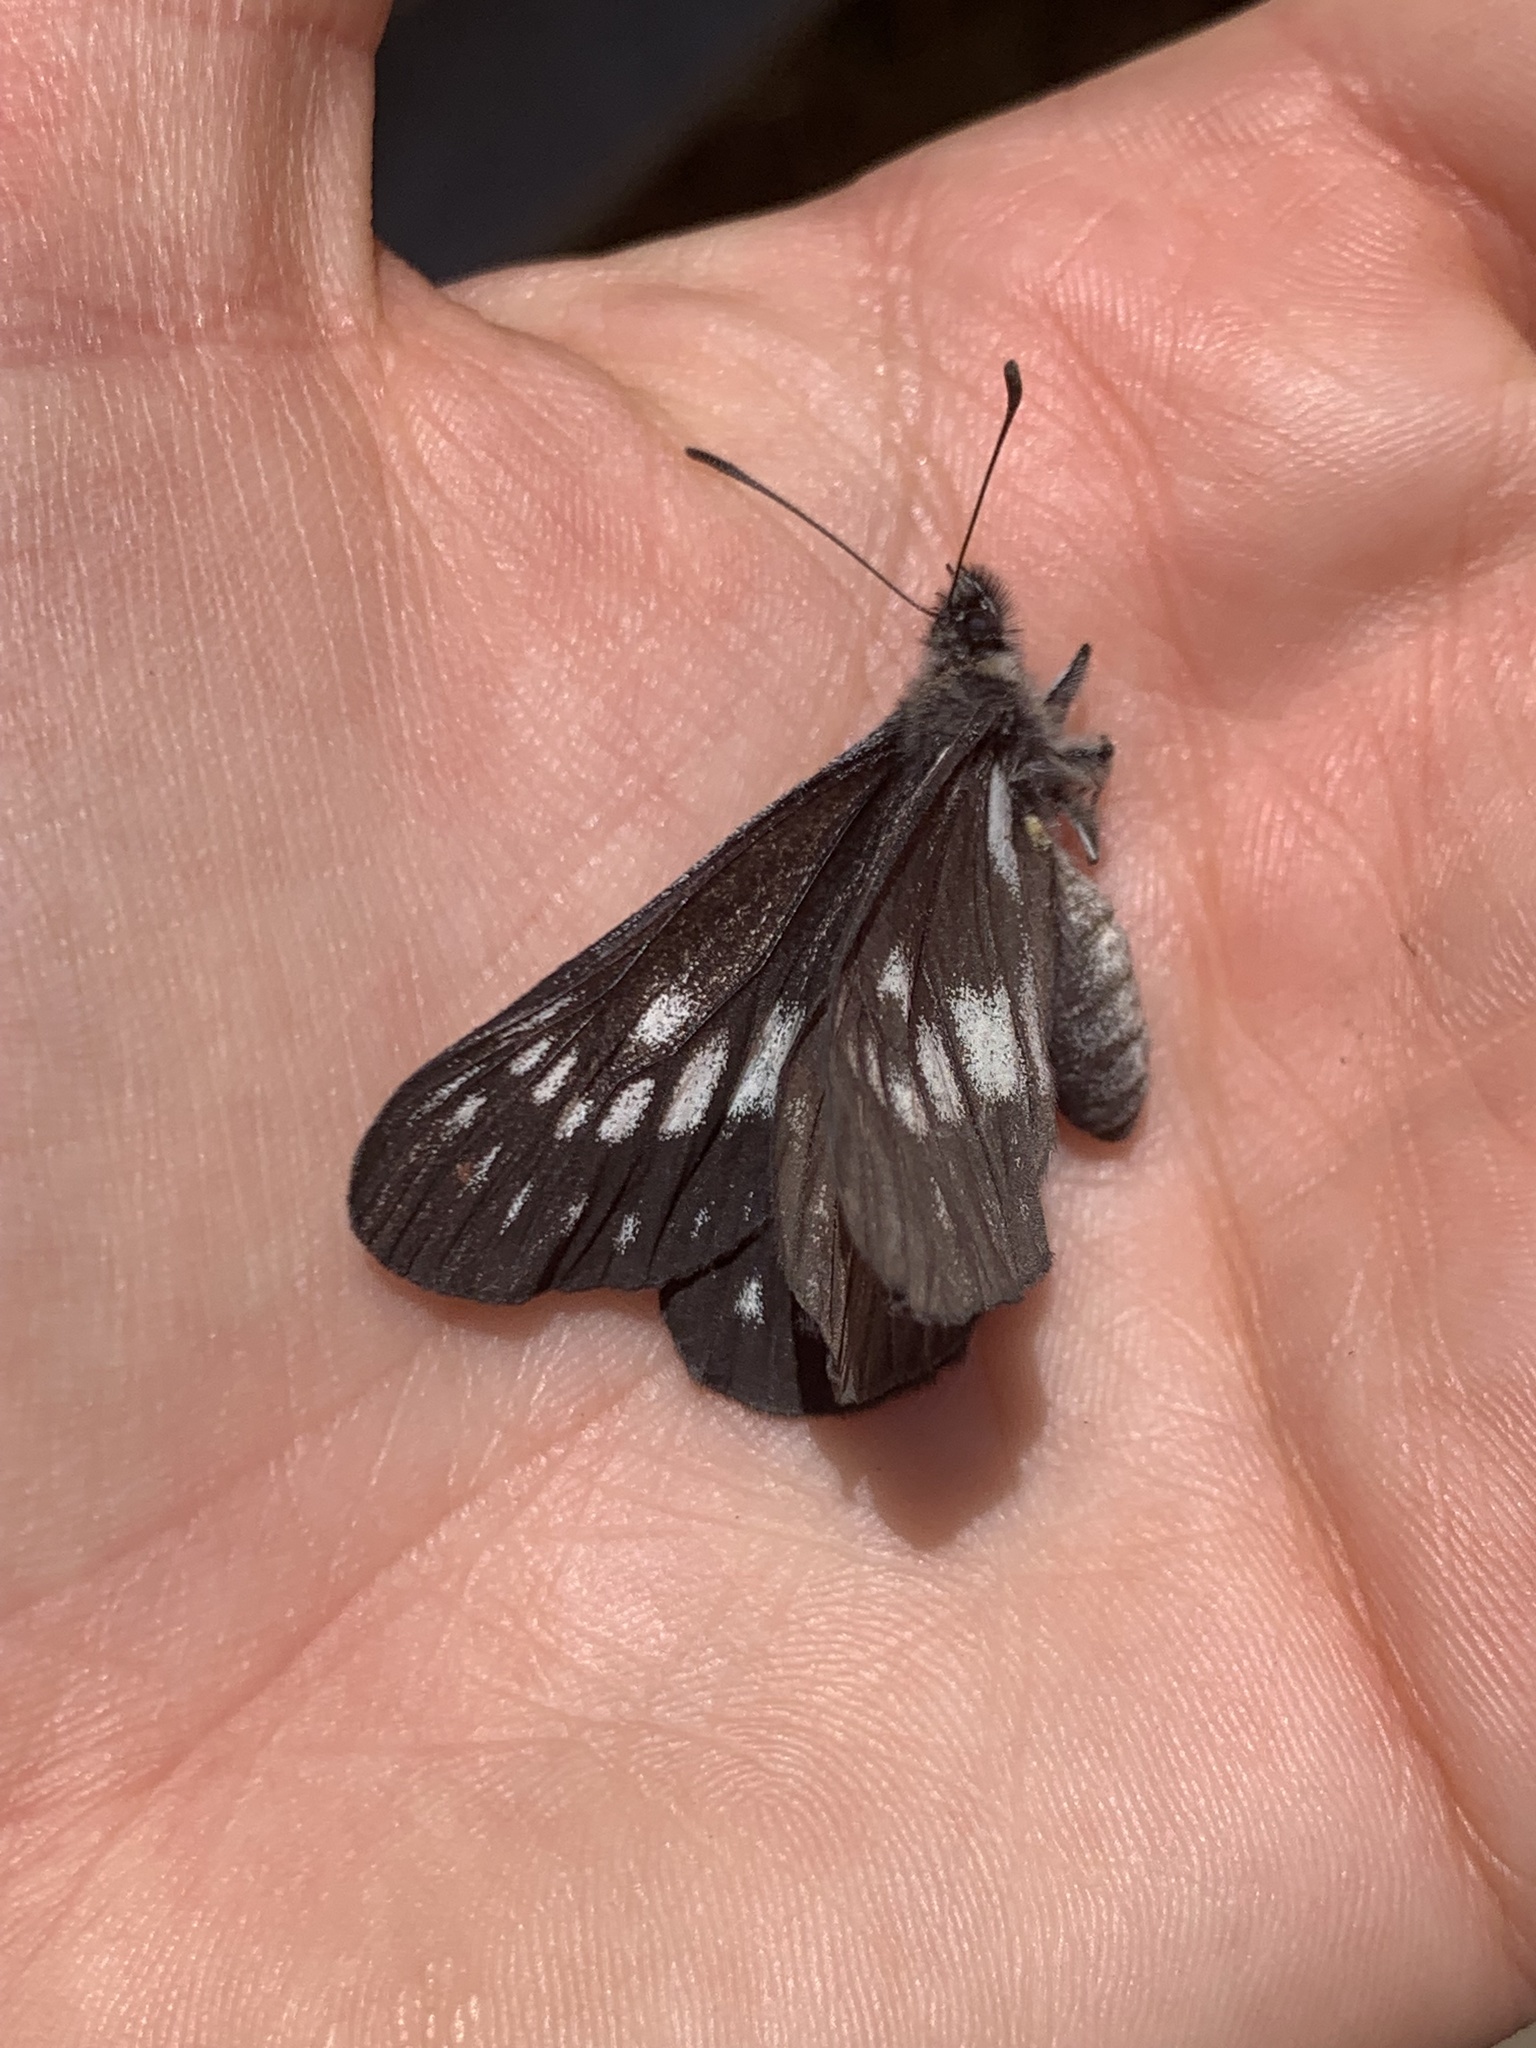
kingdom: Animalia
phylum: Arthropoda
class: Insecta
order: Lepidoptera
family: Pieridae
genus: Eucheira
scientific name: Eucheira socialis
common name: Madrone white
